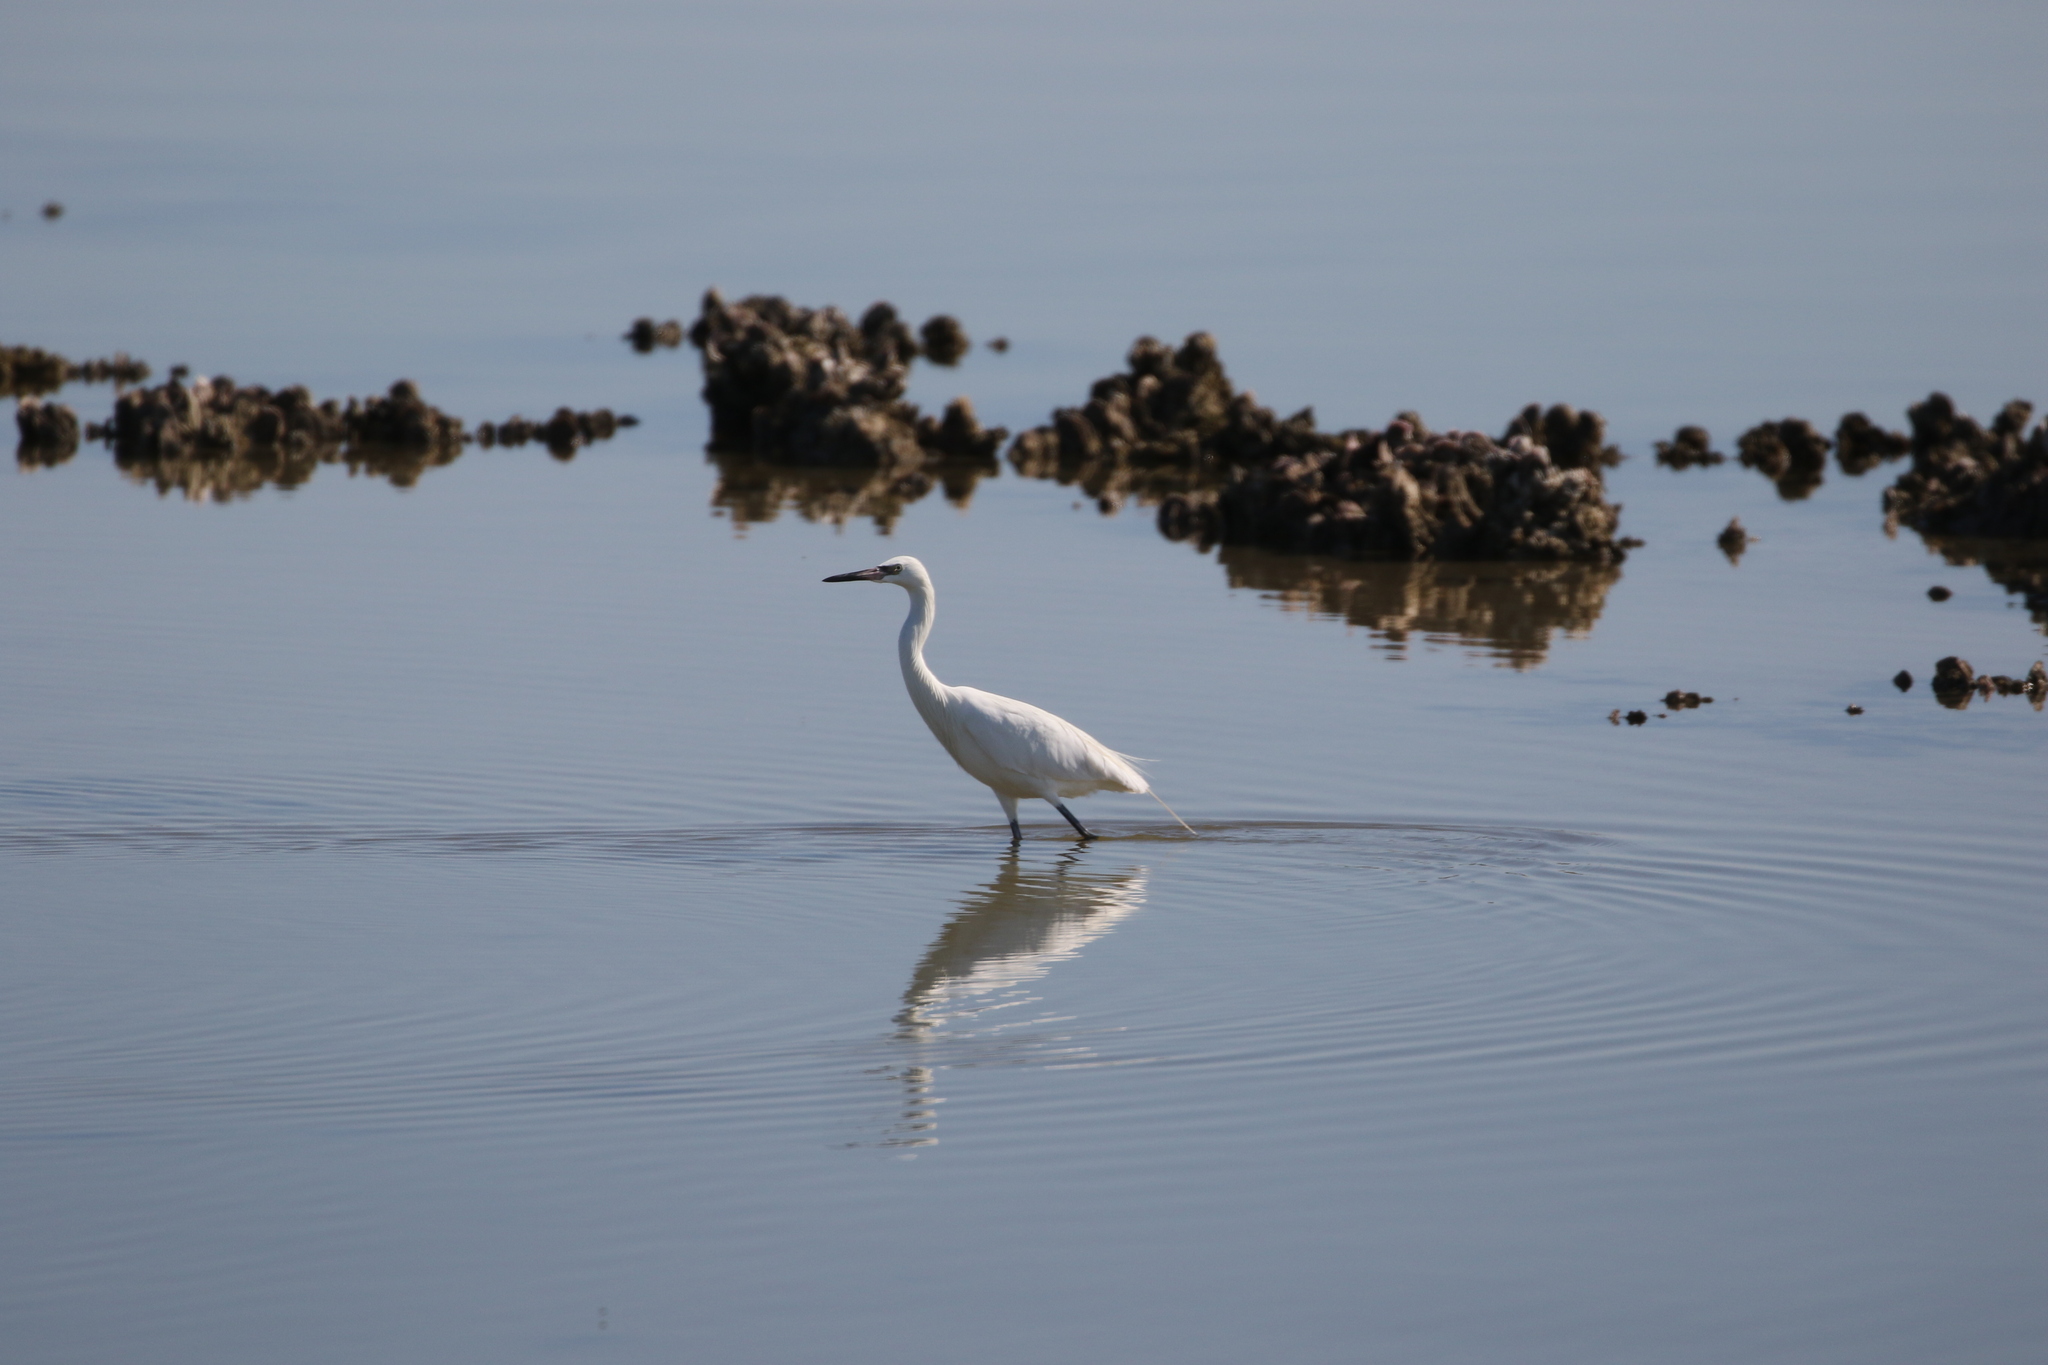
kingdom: Animalia
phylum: Chordata
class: Aves
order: Pelecaniformes
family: Ardeidae
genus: Egretta
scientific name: Egretta rufescens
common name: Reddish egret
